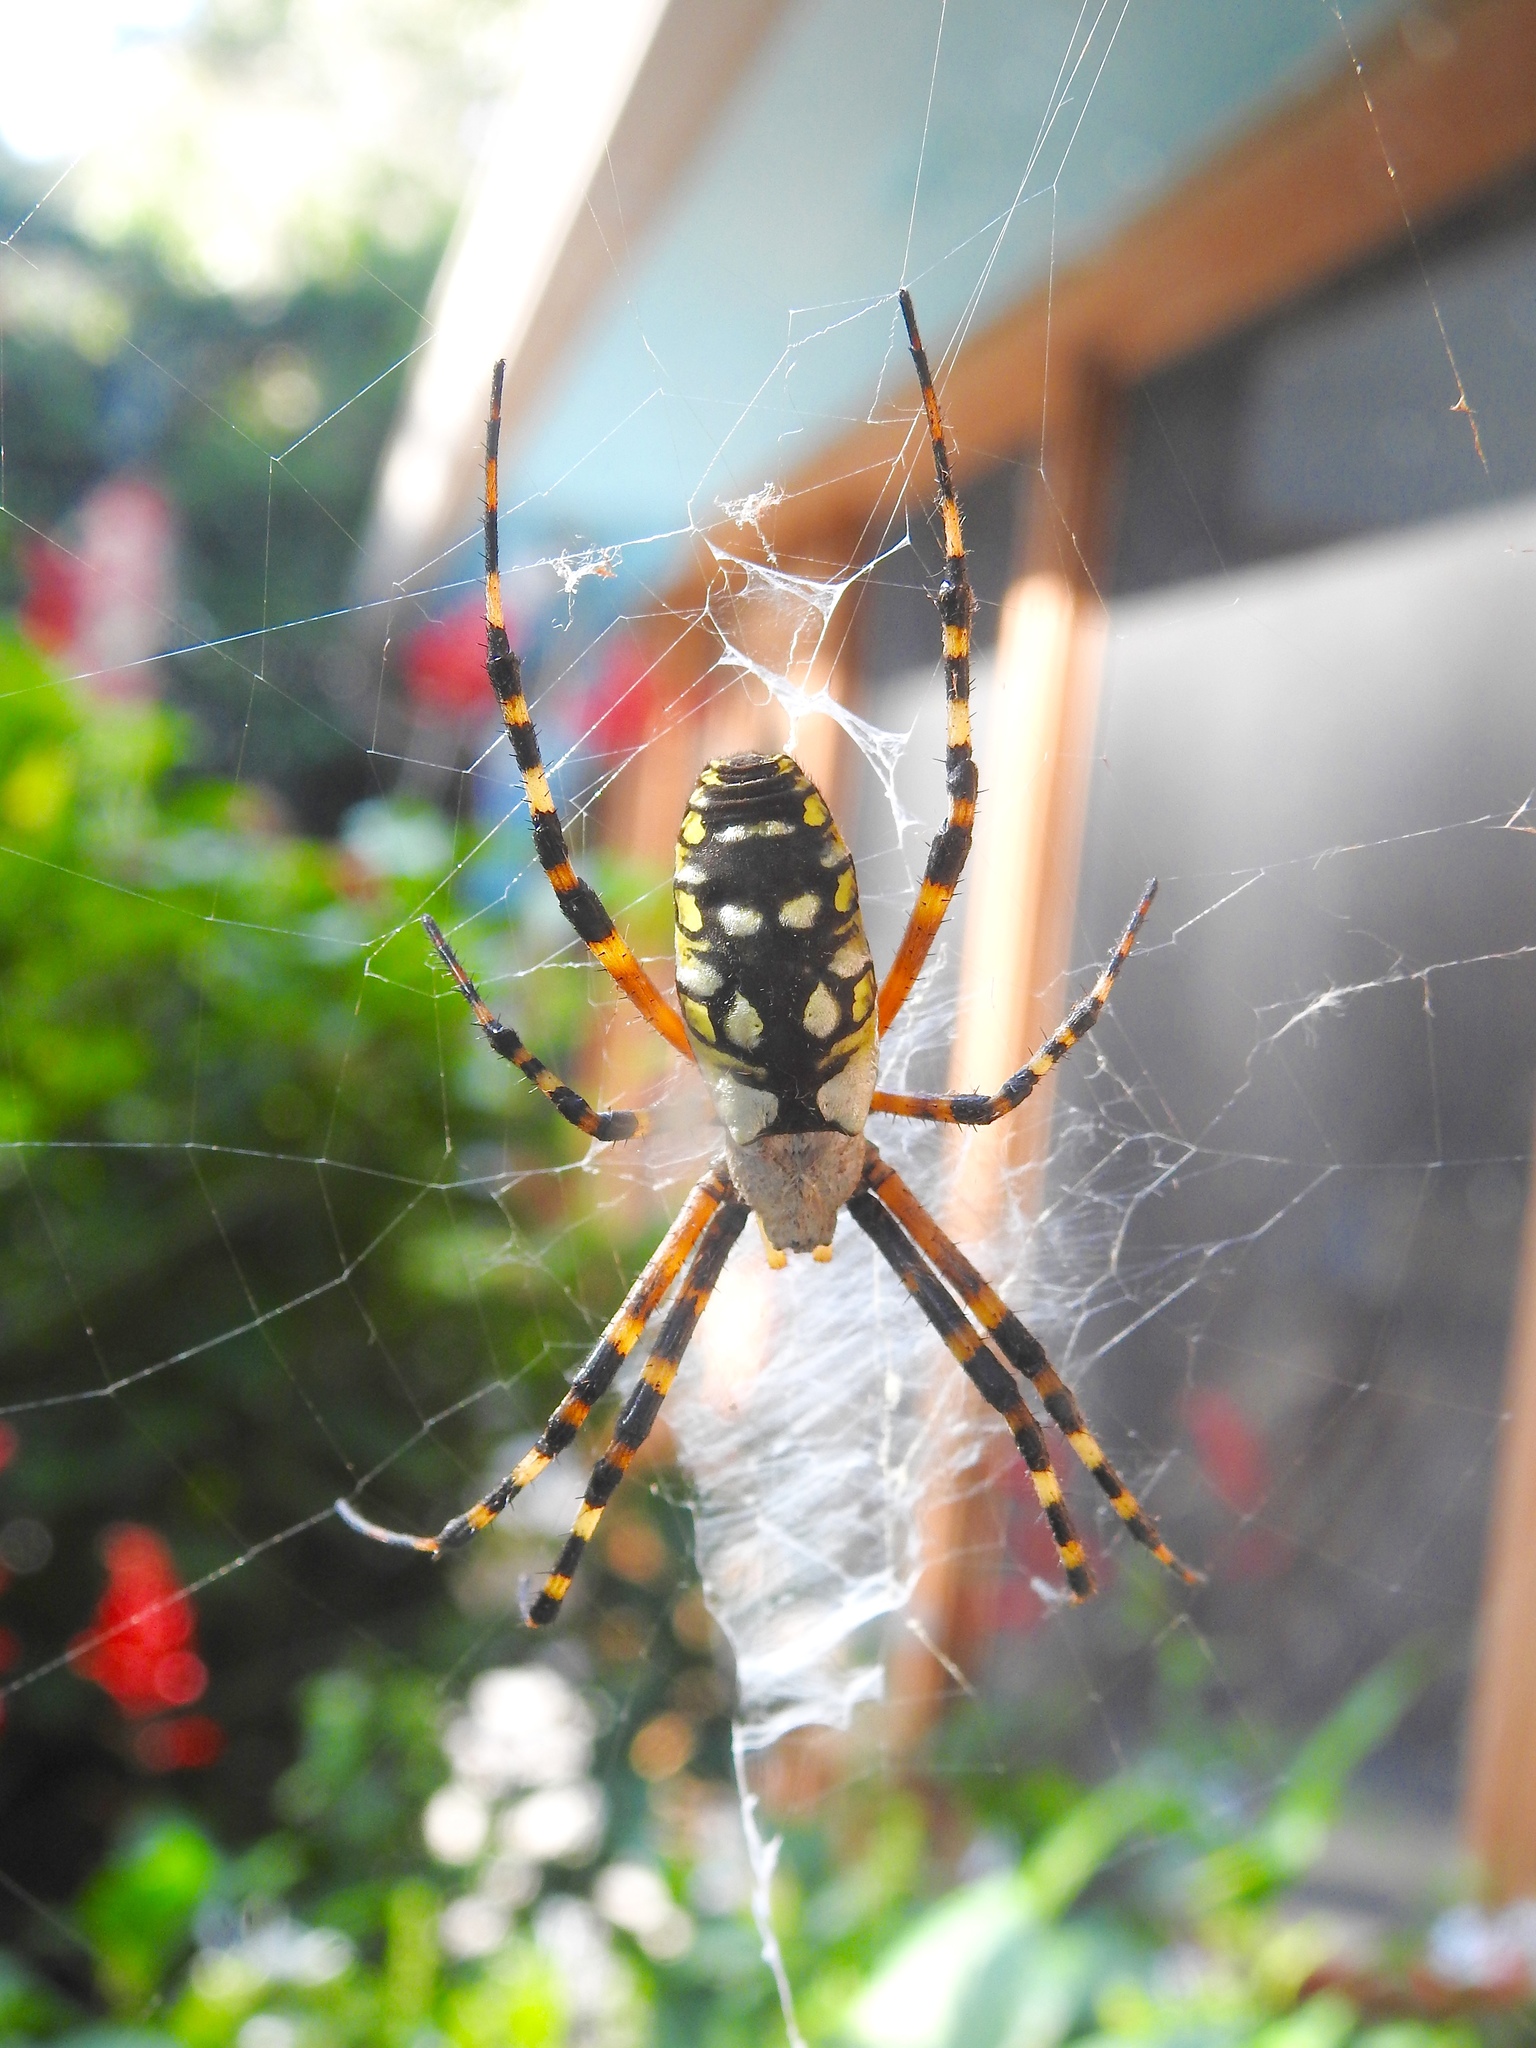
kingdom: Animalia
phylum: Arthropoda
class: Arachnida
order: Araneae
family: Araneidae
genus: Argiope
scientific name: Argiope aurantia
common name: Orb weavers
